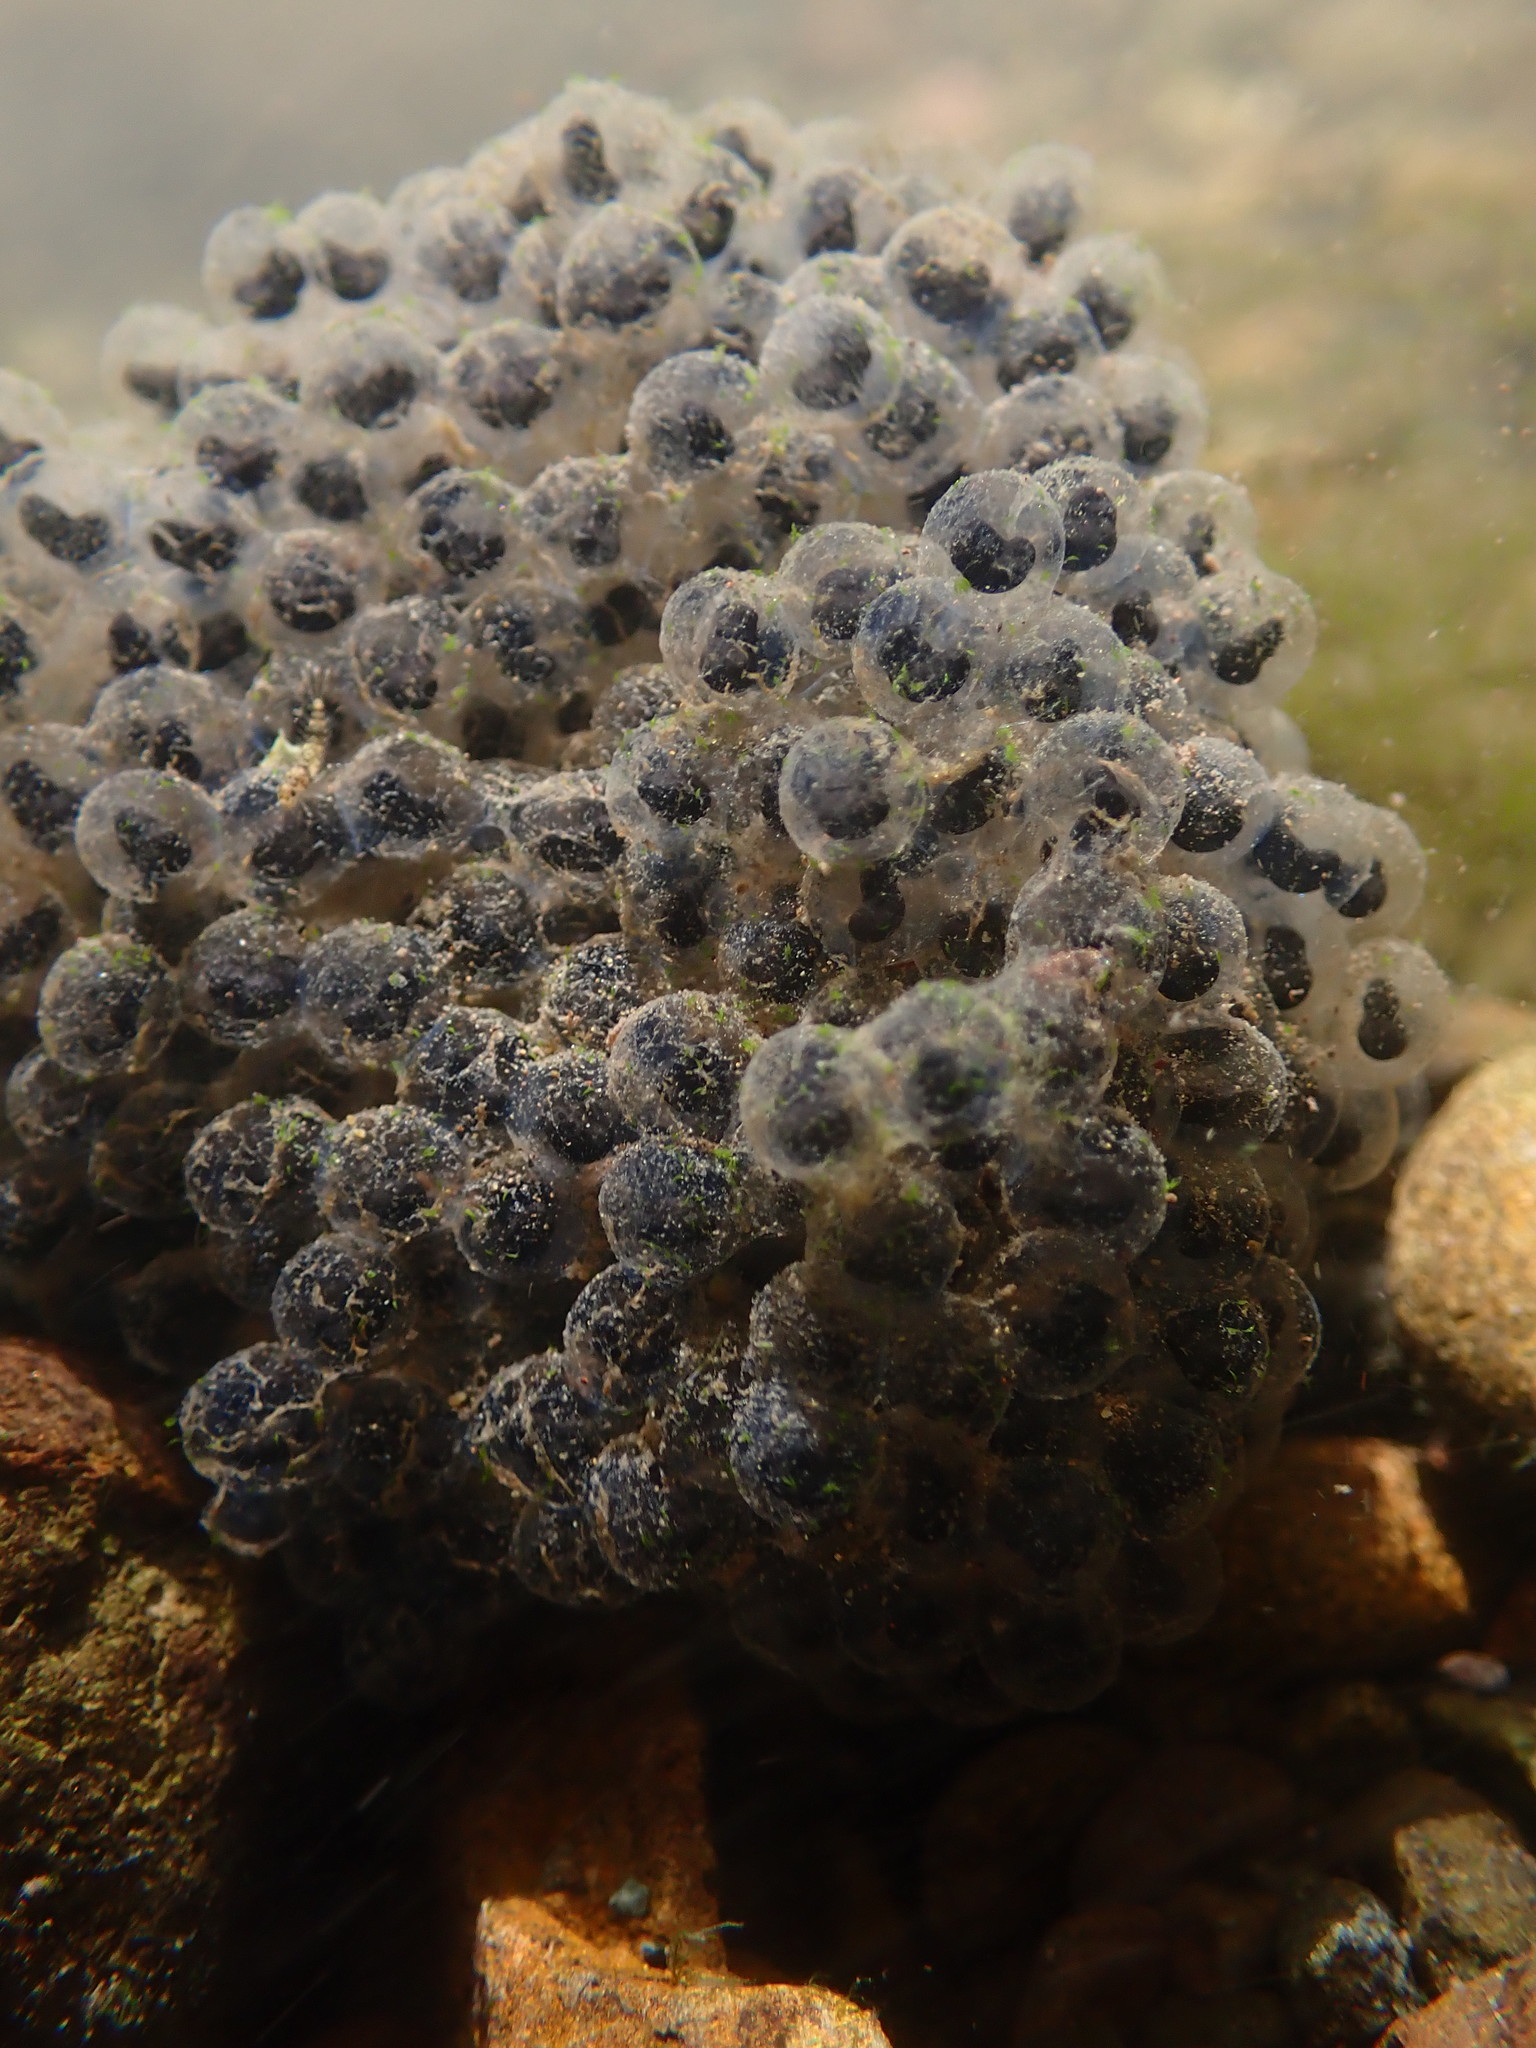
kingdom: Animalia
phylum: Chordata
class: Amphibia
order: Anura
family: Ranidae
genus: Rana
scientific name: Rana boylii
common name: Foothill yellow-legged frog
